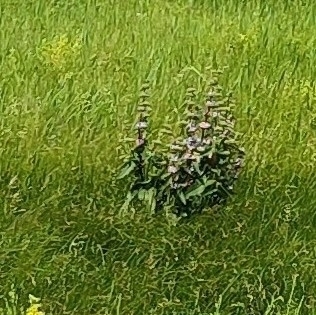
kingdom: Plantae
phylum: Tracheophyta
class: Magnoliopsida
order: Lamiales
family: Lamiaceae
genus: Phlomoides
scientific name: Phlomoides tuberosa
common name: Tuberous jerusalem sage
